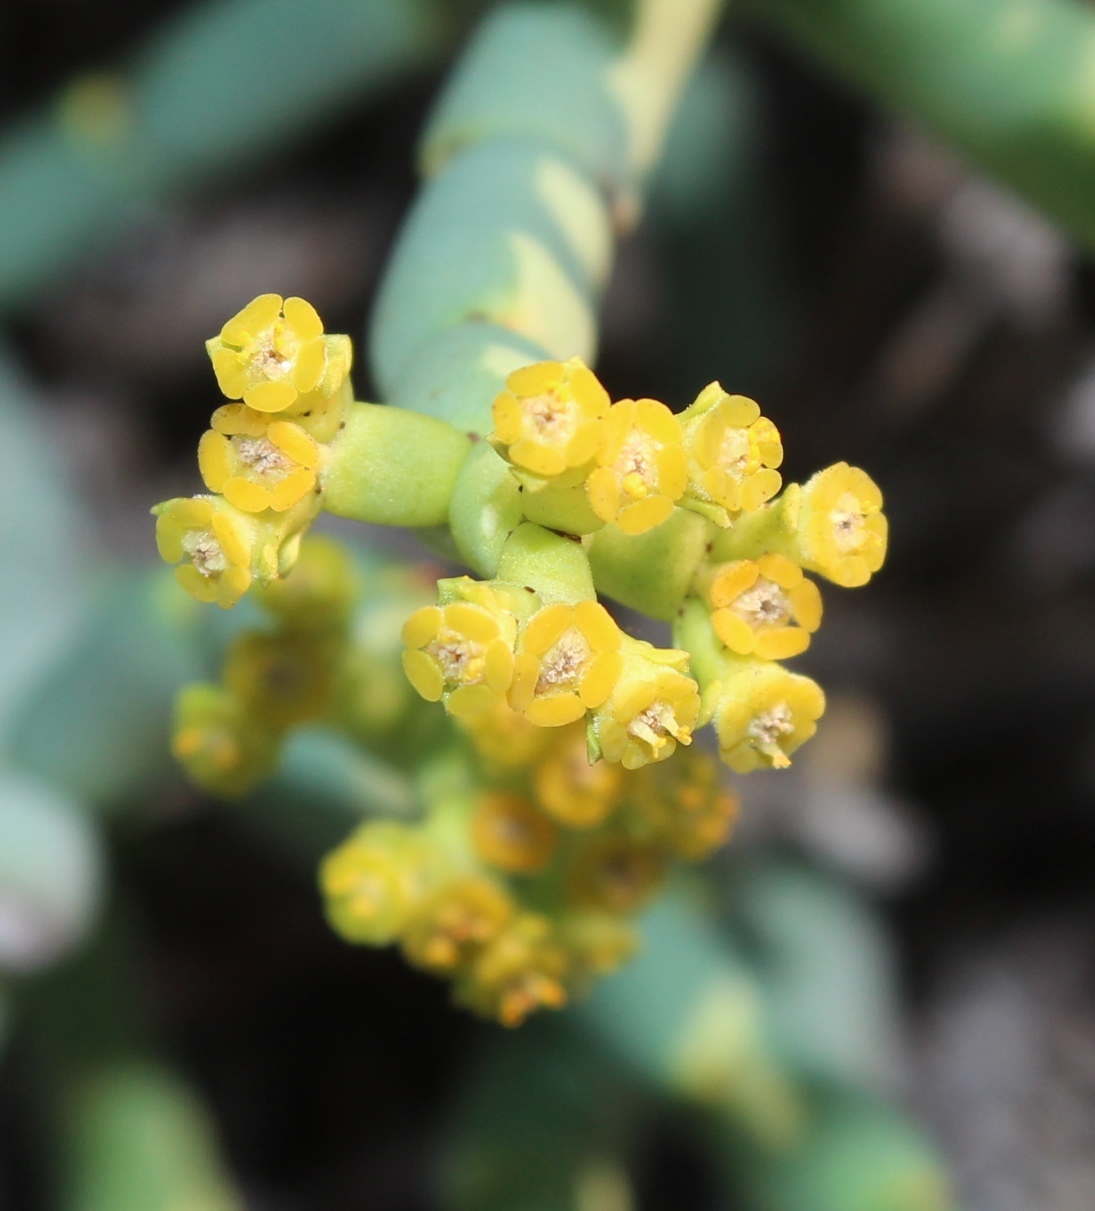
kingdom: Plantae
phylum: Tracheophyta
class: Magnoliopsida
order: Malpighiales
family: Euphorbiaceae
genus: Euphorbia
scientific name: Euphorbia burmanni
